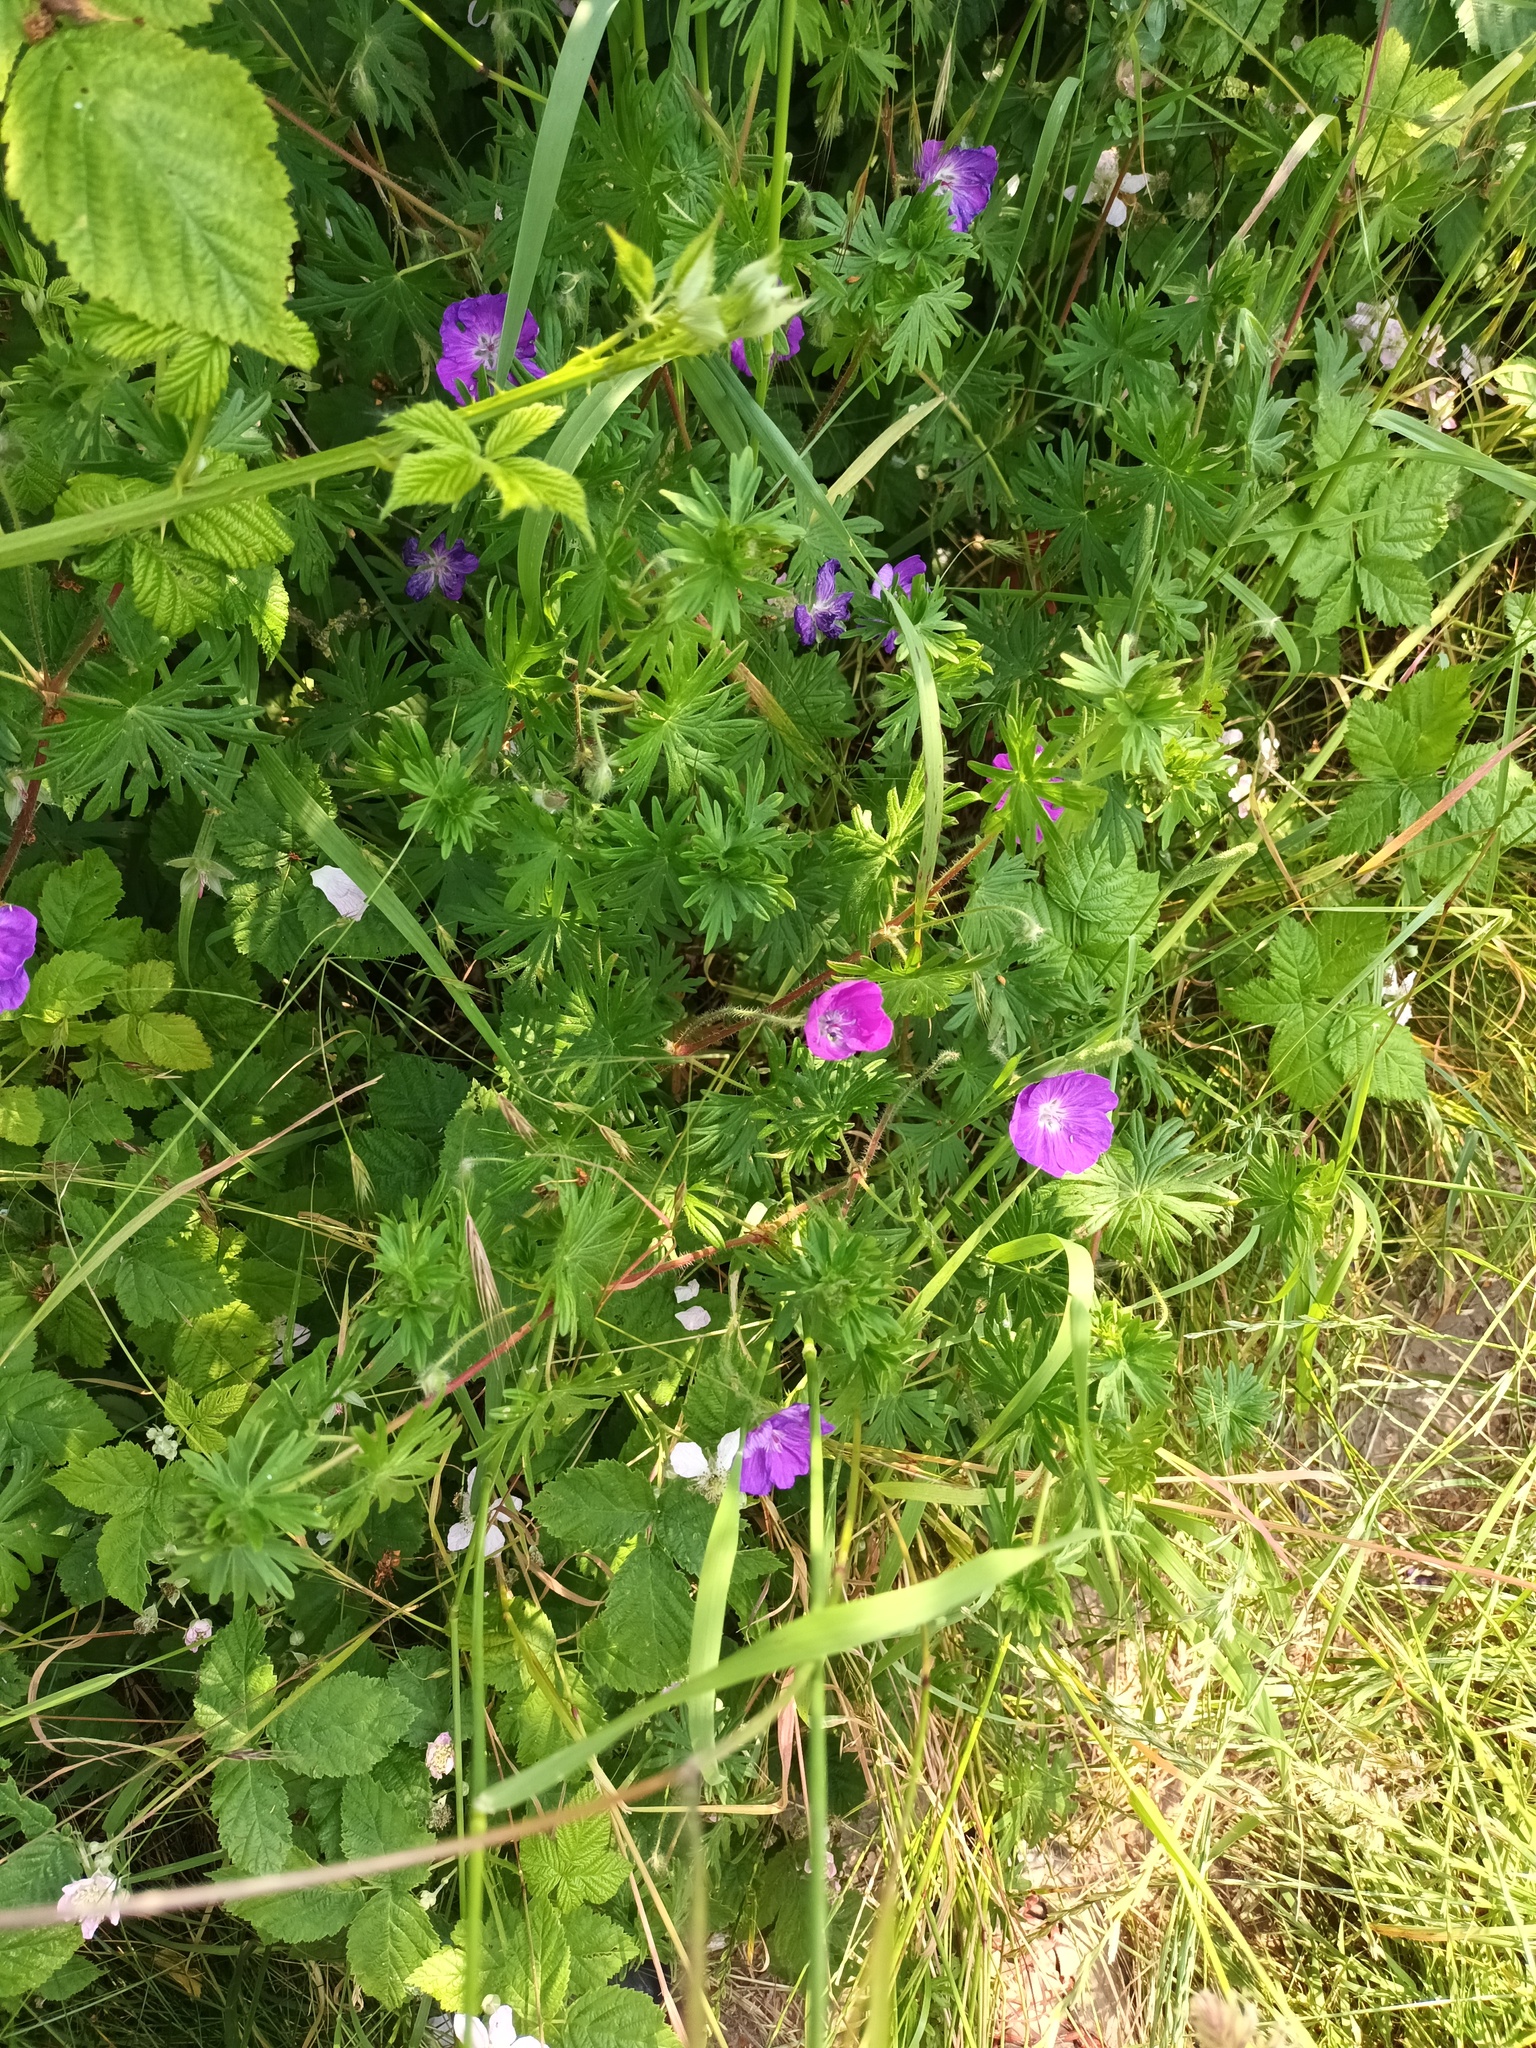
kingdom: Plantae
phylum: Tracheophyta
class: Magnoliopsida
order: Geraniales
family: Geraniaceae
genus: Geranium
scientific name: Geranium sanguineum
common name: Bloody crane's-bill
